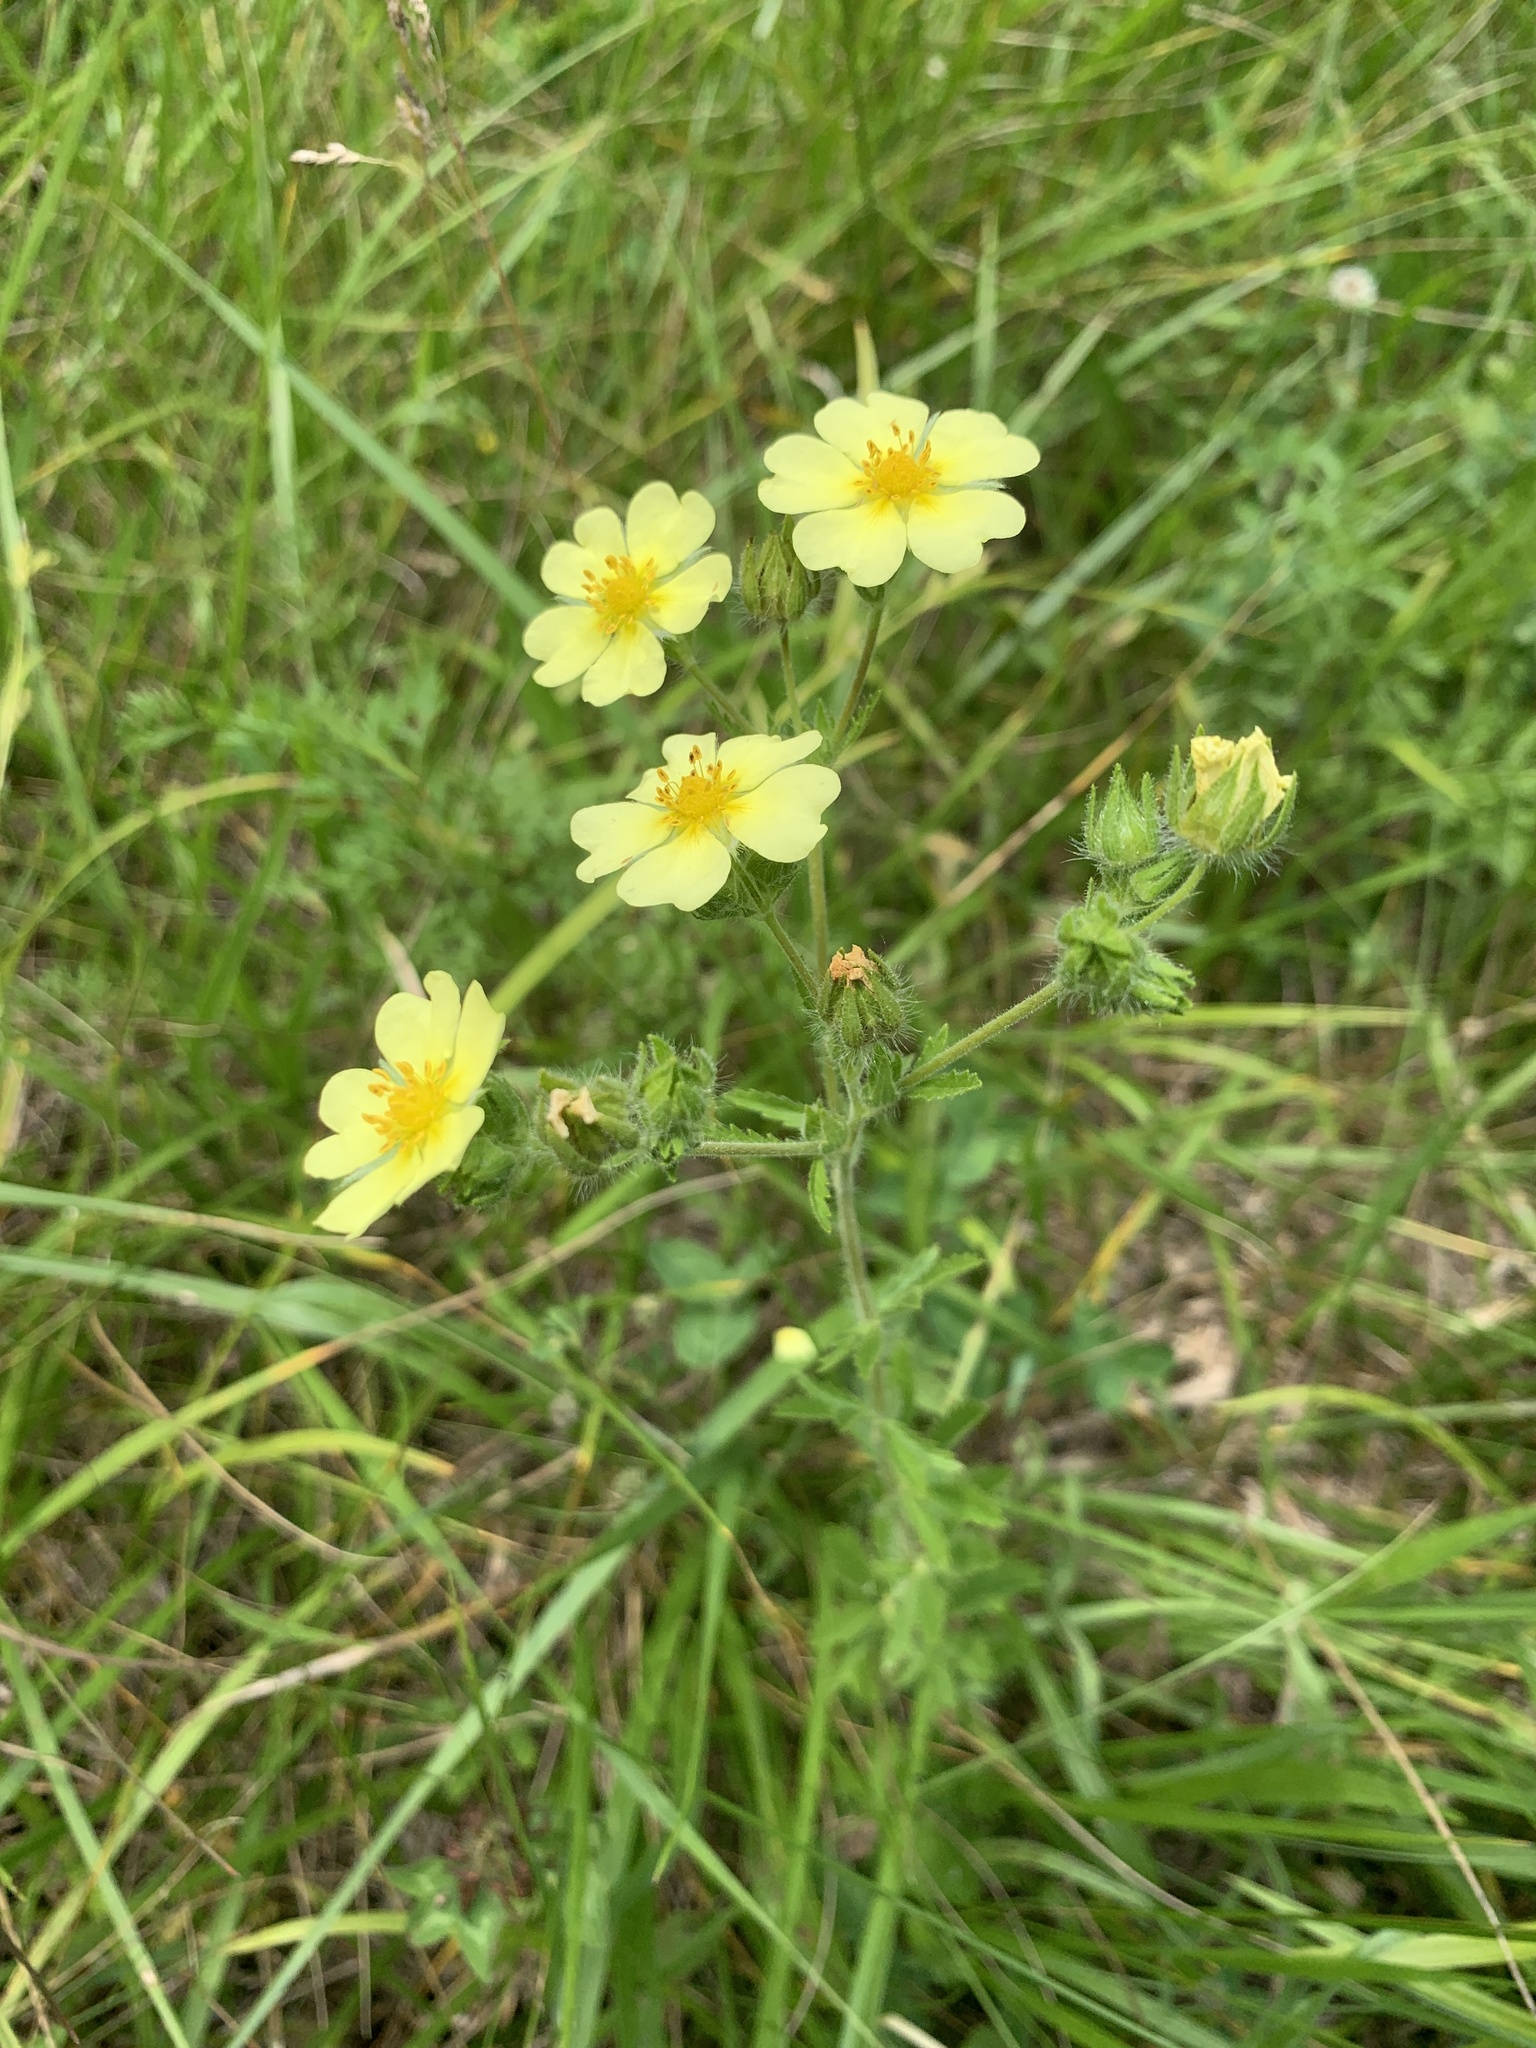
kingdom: Plantae
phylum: Tracheophyta
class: Magnoliopsida
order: Rosales
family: Rosaceae
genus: Potentilla
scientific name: Potentilla recta
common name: Sulphur cinquefoil
